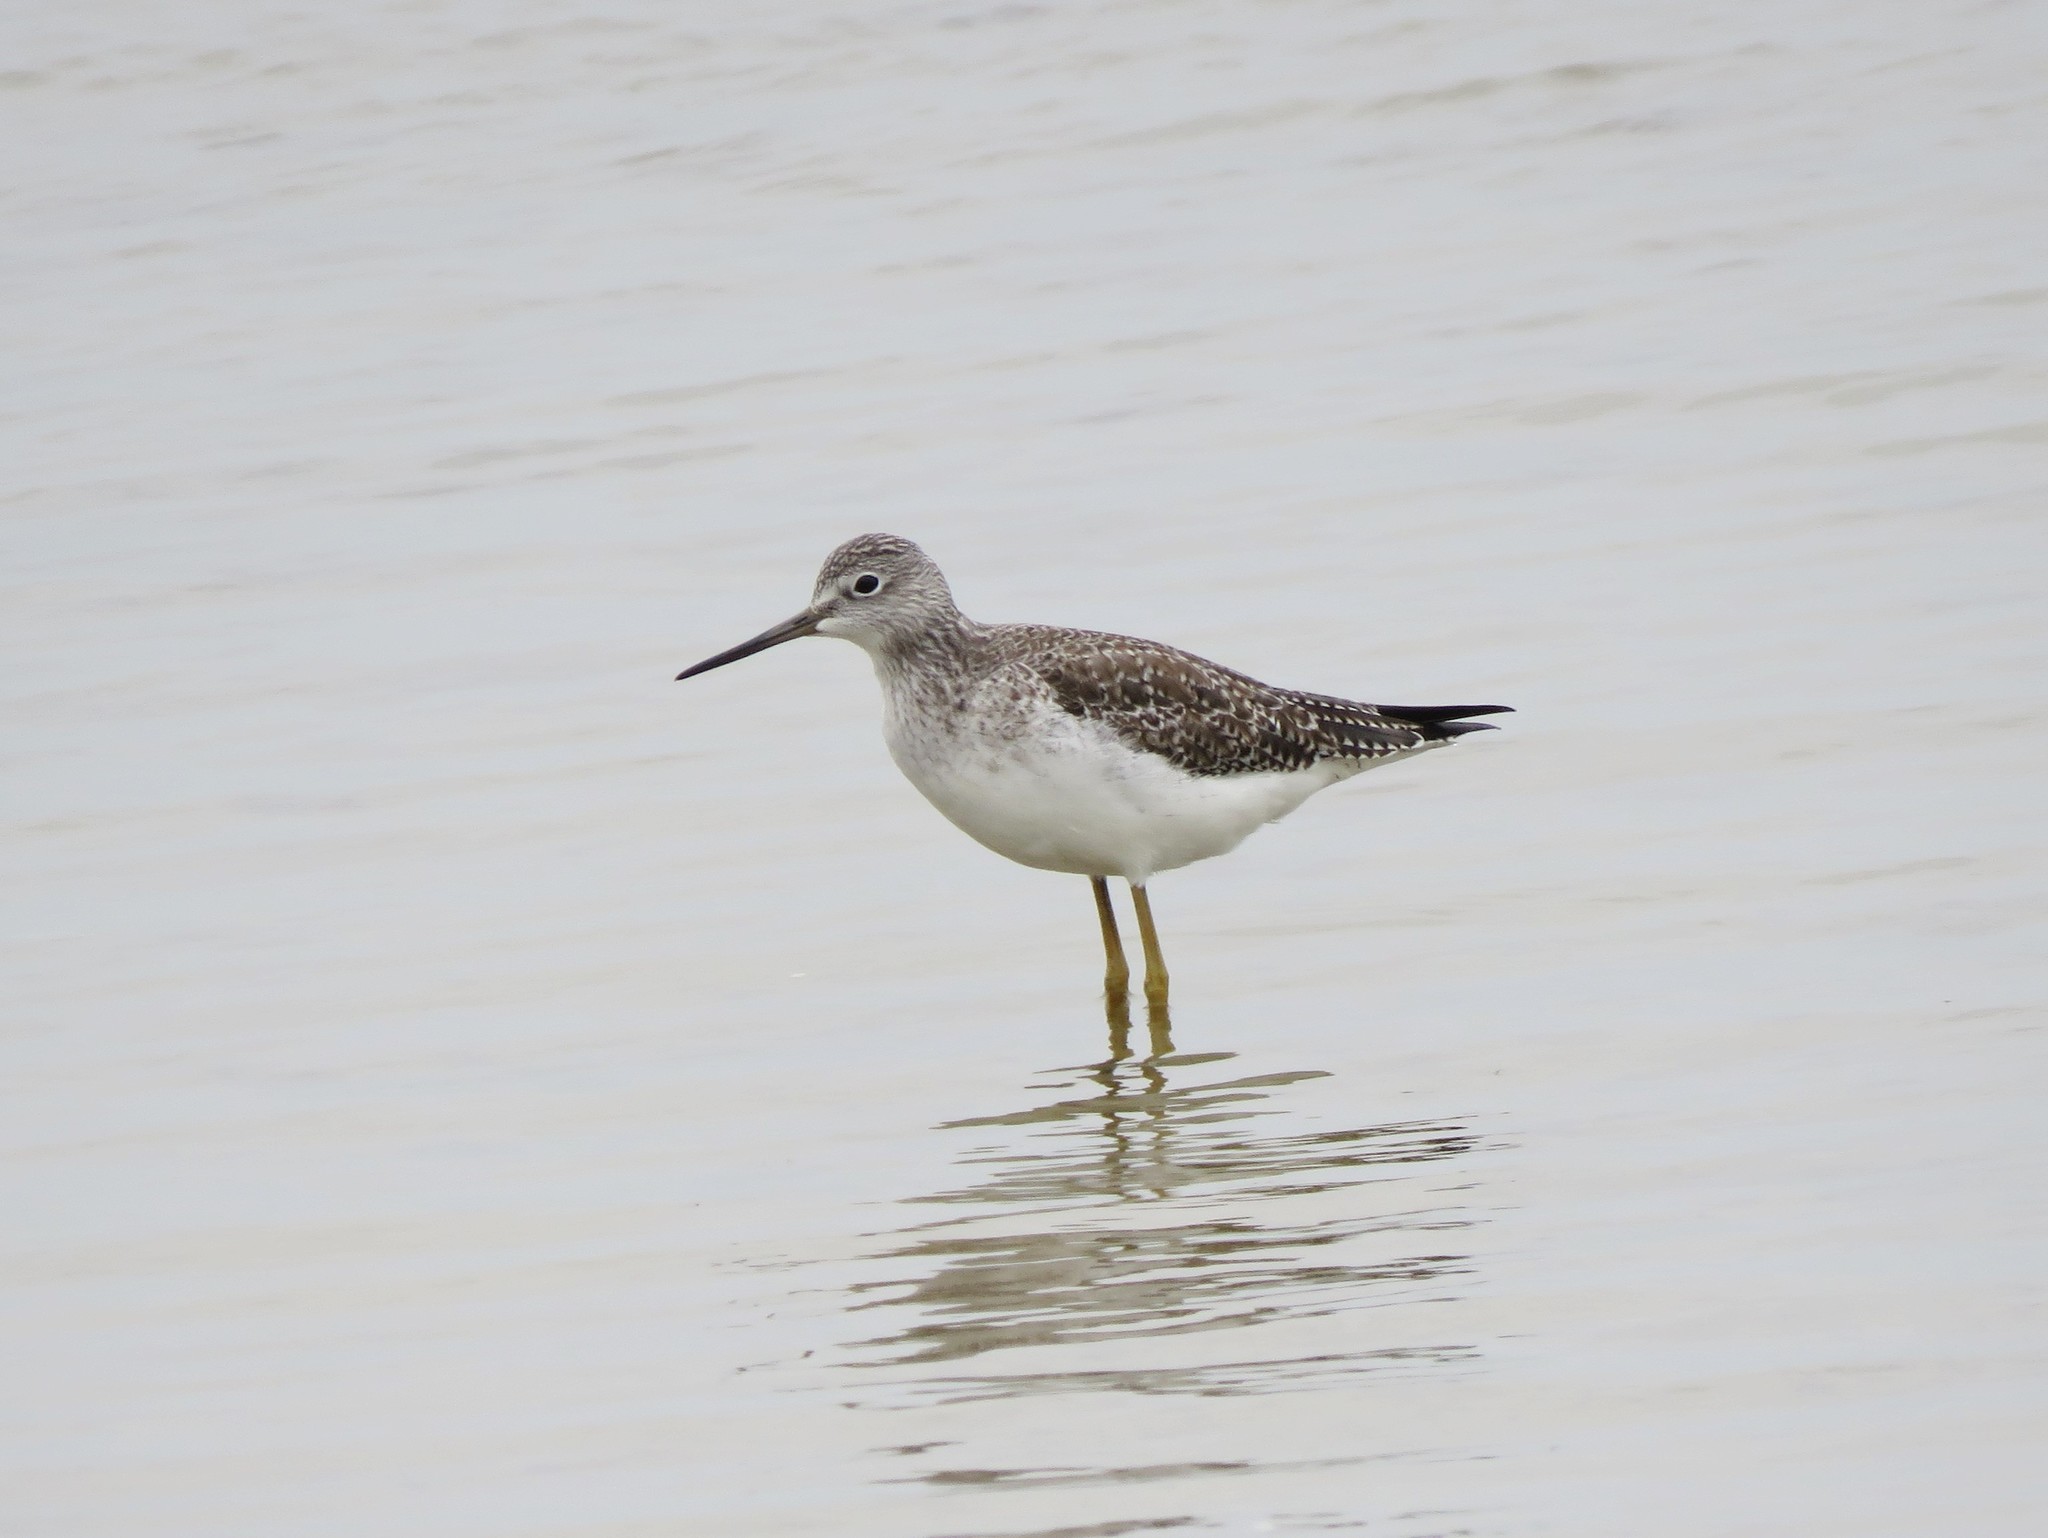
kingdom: Animalia
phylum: Chordata
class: Aves
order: Charadriiformes
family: Scolopacidae
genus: Tringa
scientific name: Tringa melanoleuca
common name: Greater yellowlegs
